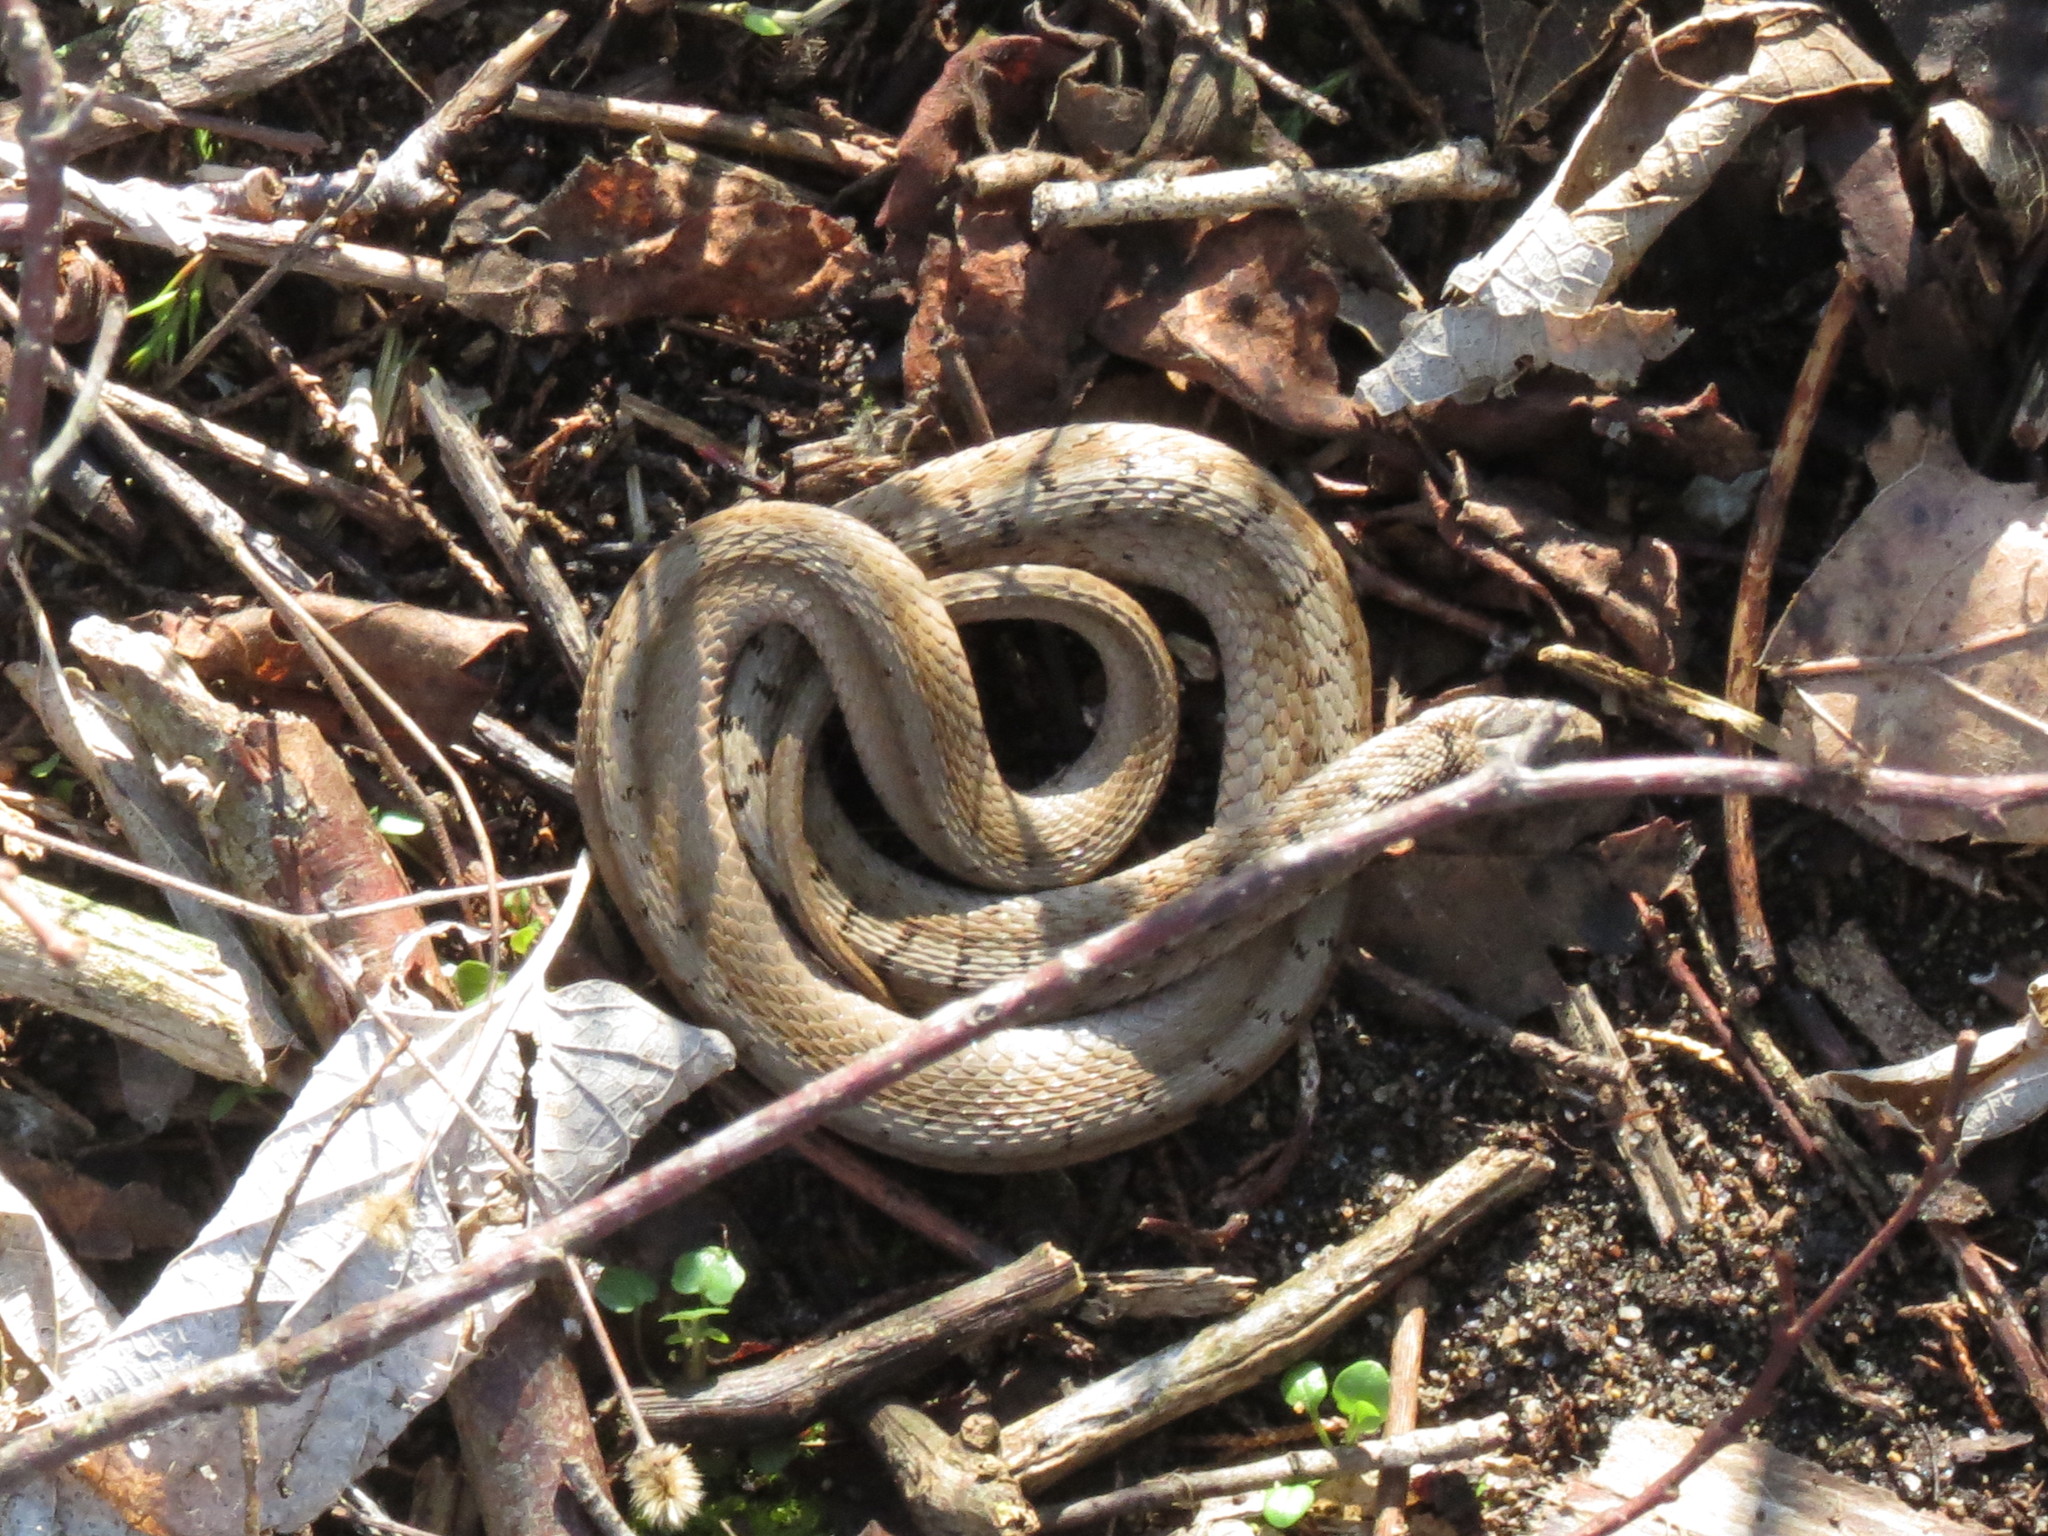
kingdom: Animalia
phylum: Chordata
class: Squamata
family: Colubridae
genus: Storeria
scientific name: Storeria dekayi
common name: (dekay’s) brown snake
